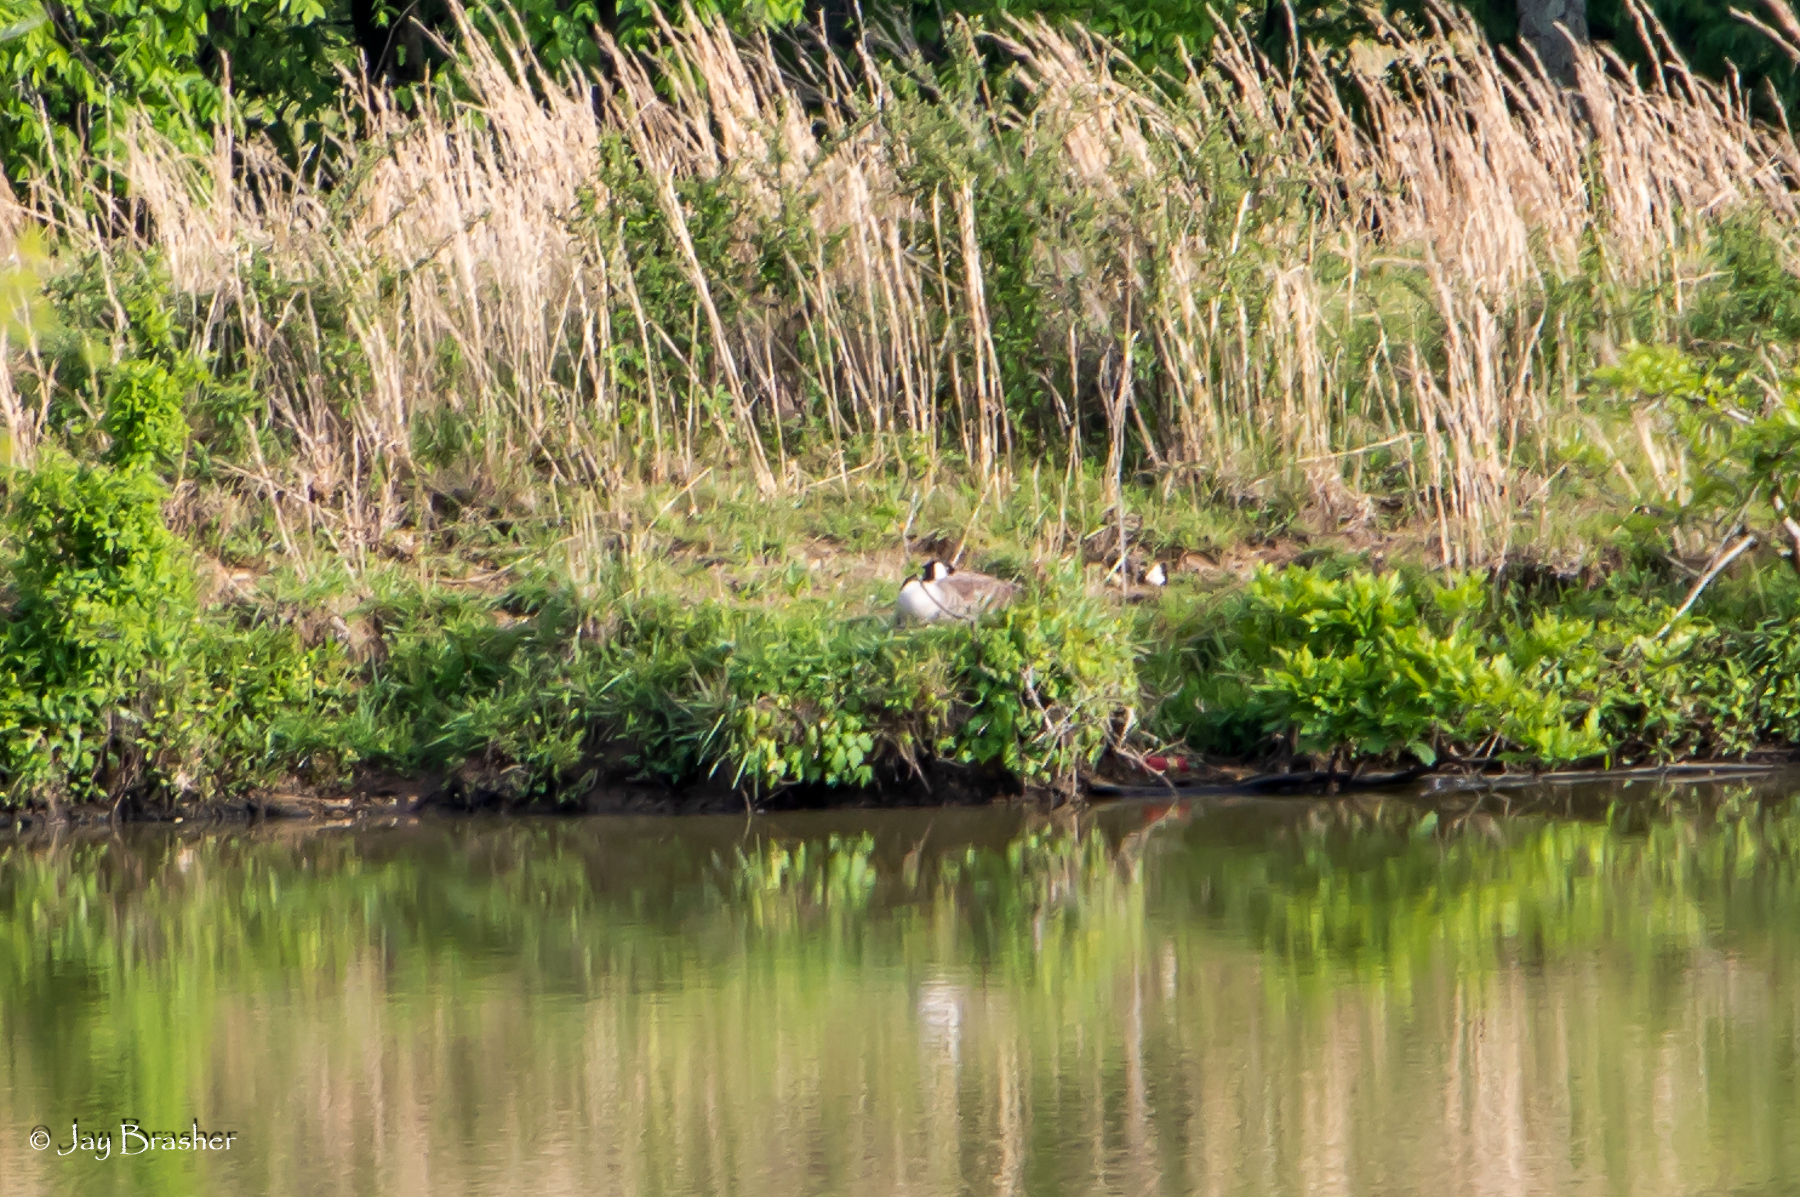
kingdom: Animalia
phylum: Chordata
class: Aves
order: Anseriformes
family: Anatidae
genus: Branta
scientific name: Branta canadensis
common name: Canada goose
